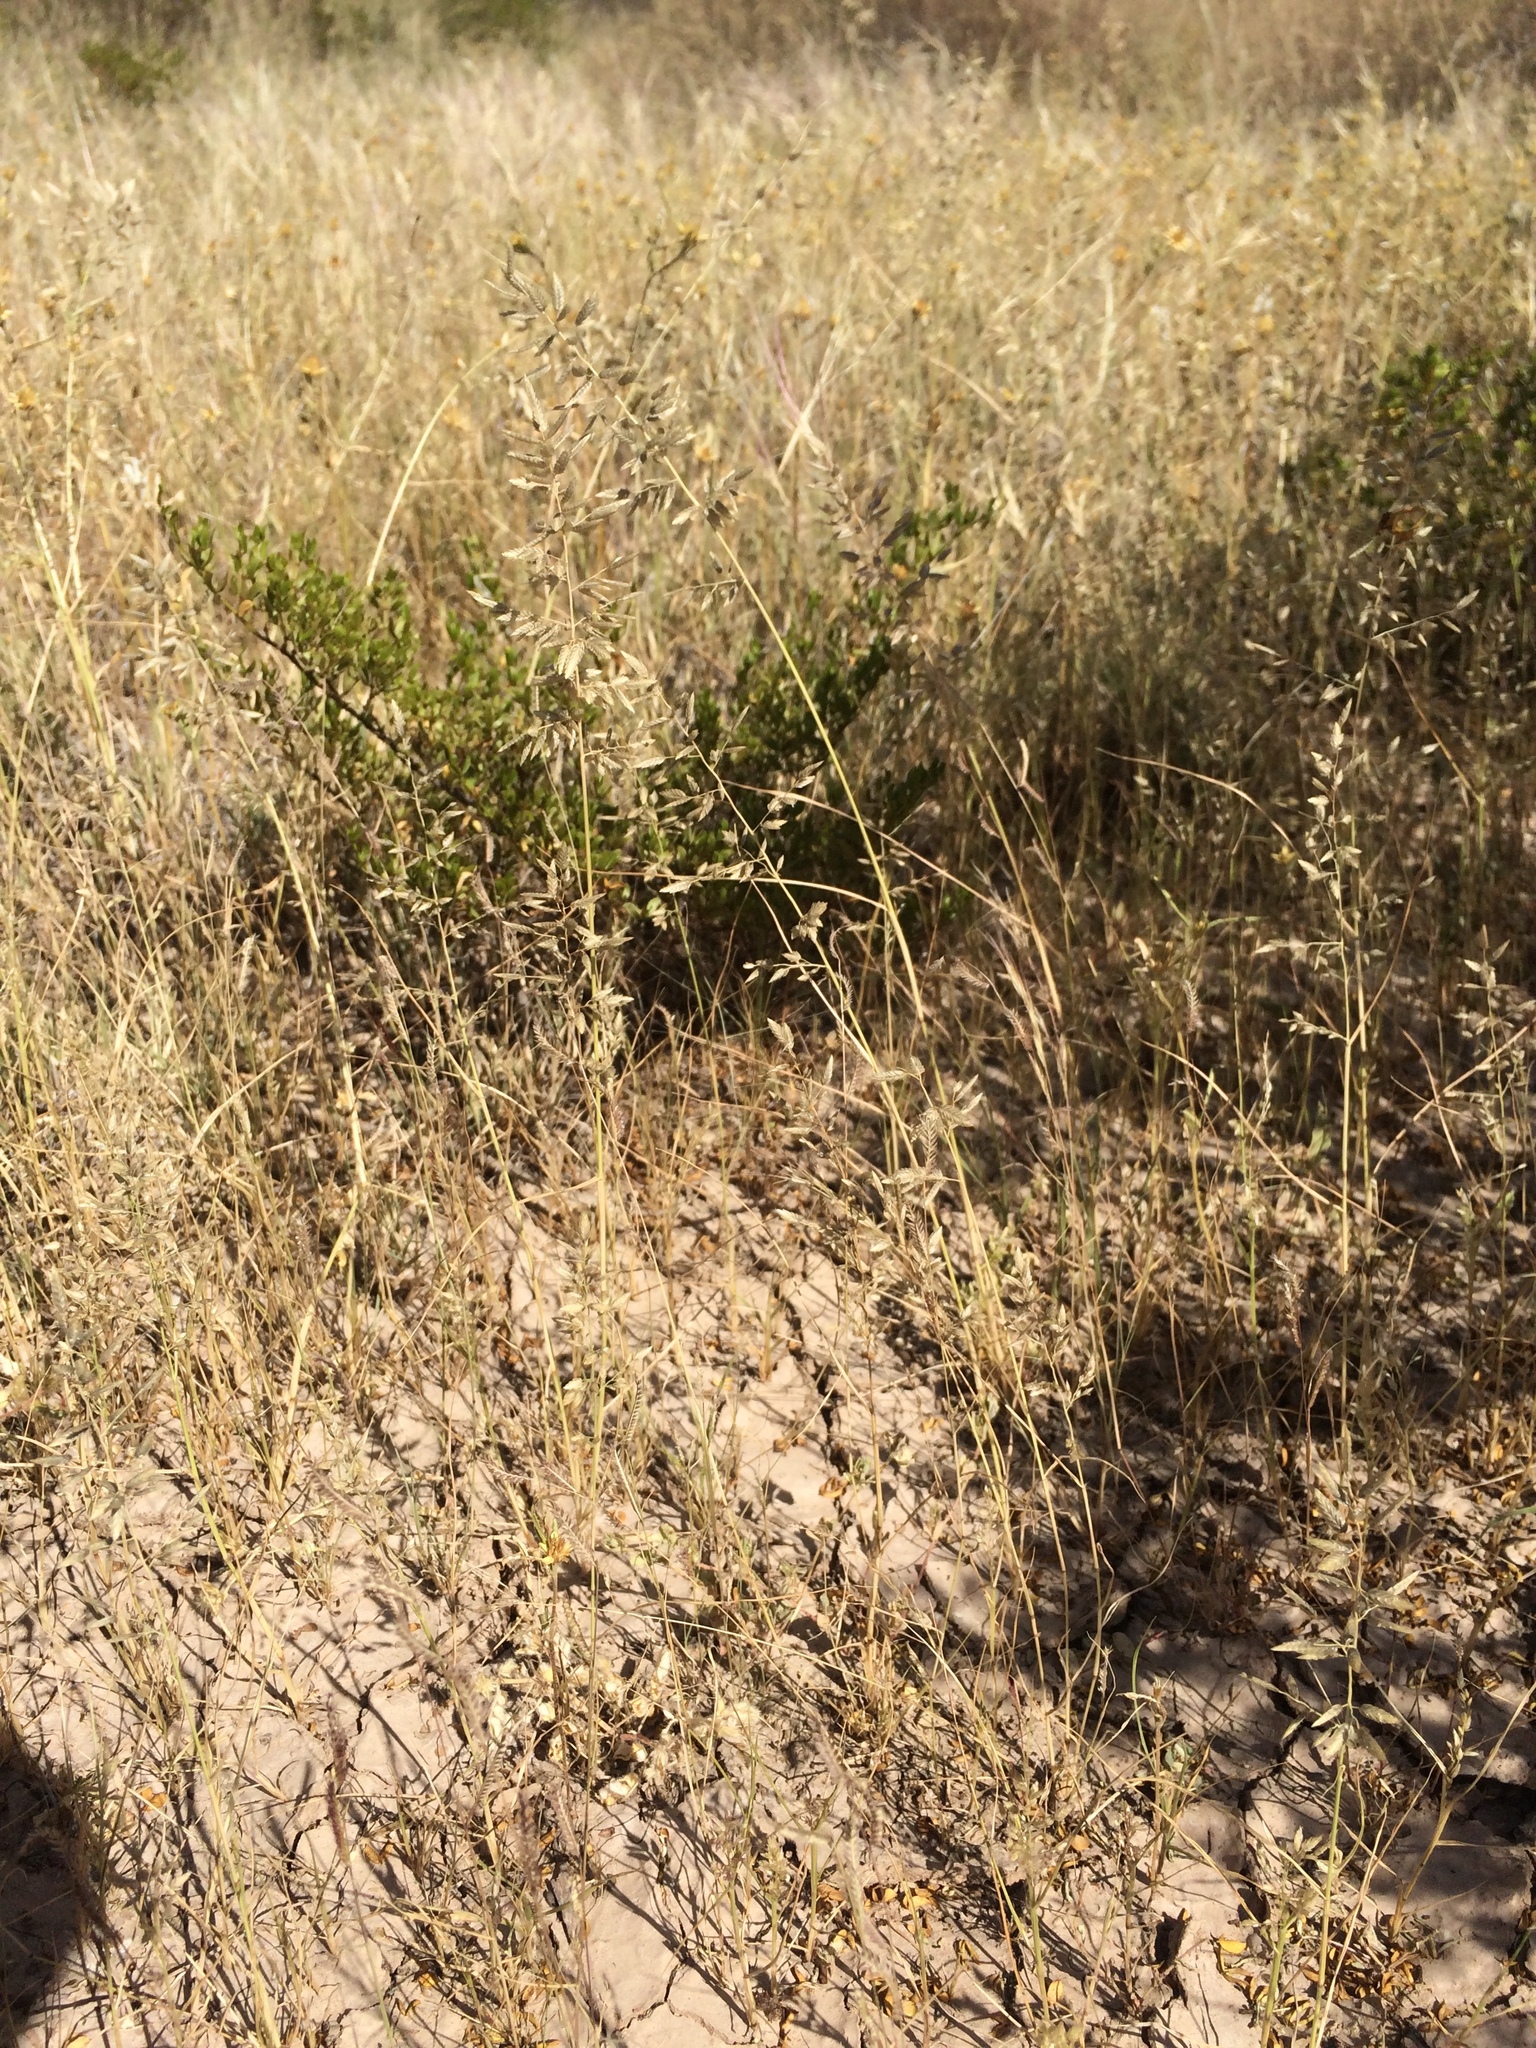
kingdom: Plantae
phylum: Tracheophyta
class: Liliopsida
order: Poales
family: Poaceae
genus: Eragrostis
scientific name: Eragrostis cilianensis
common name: Stinkgrass
